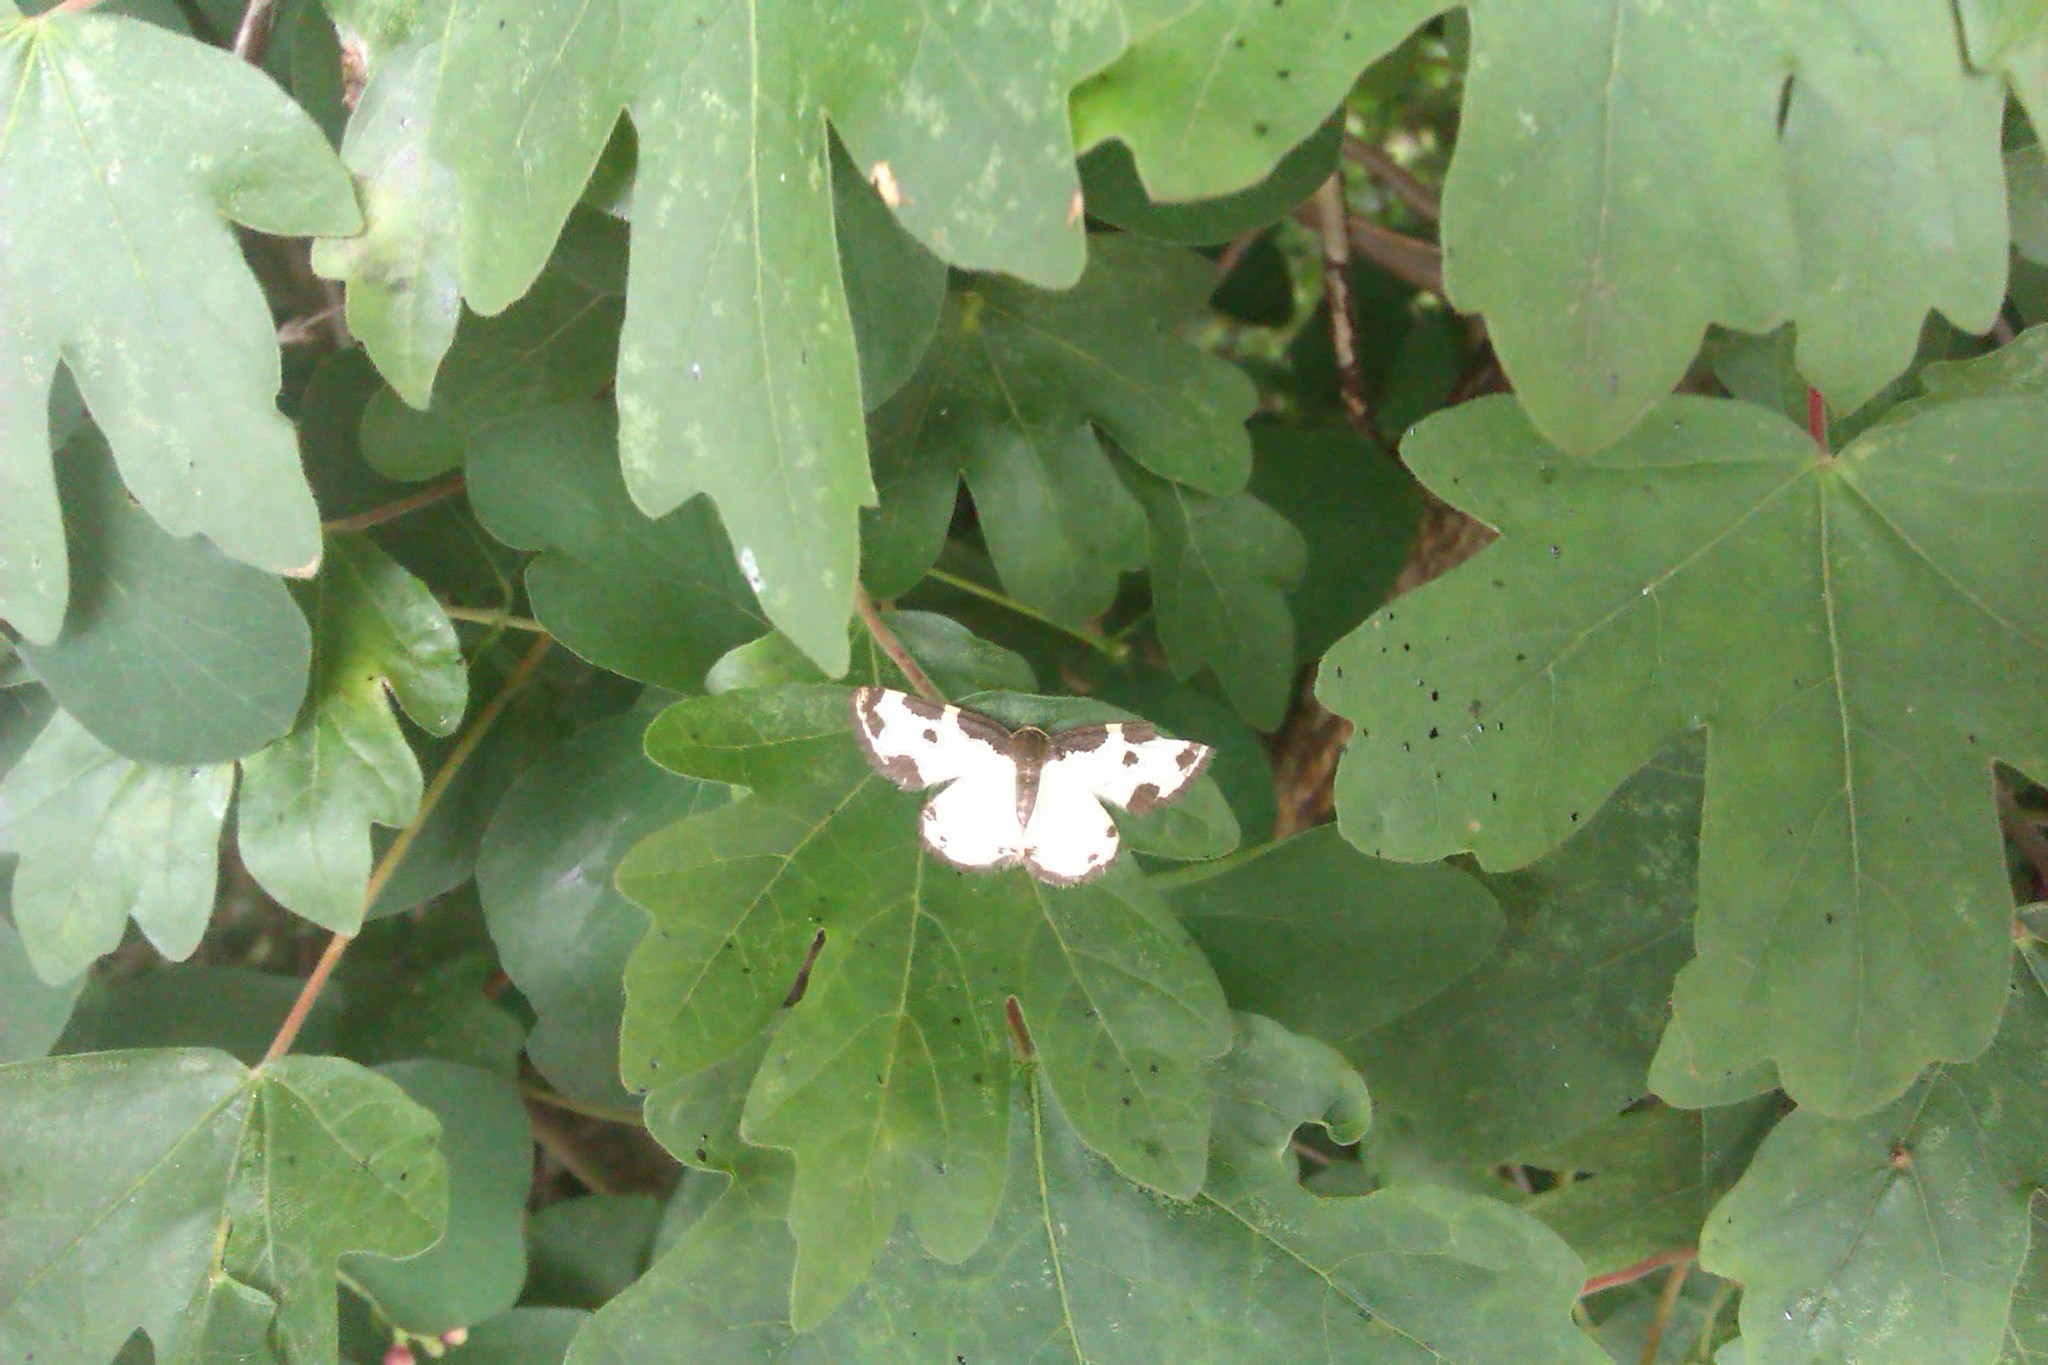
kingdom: Animalia
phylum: Arthropoda
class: Insecta
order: Lepidoptera
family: Geometridae
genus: Lomaspilis
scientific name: Lomaspilis marginata
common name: Clouded border
